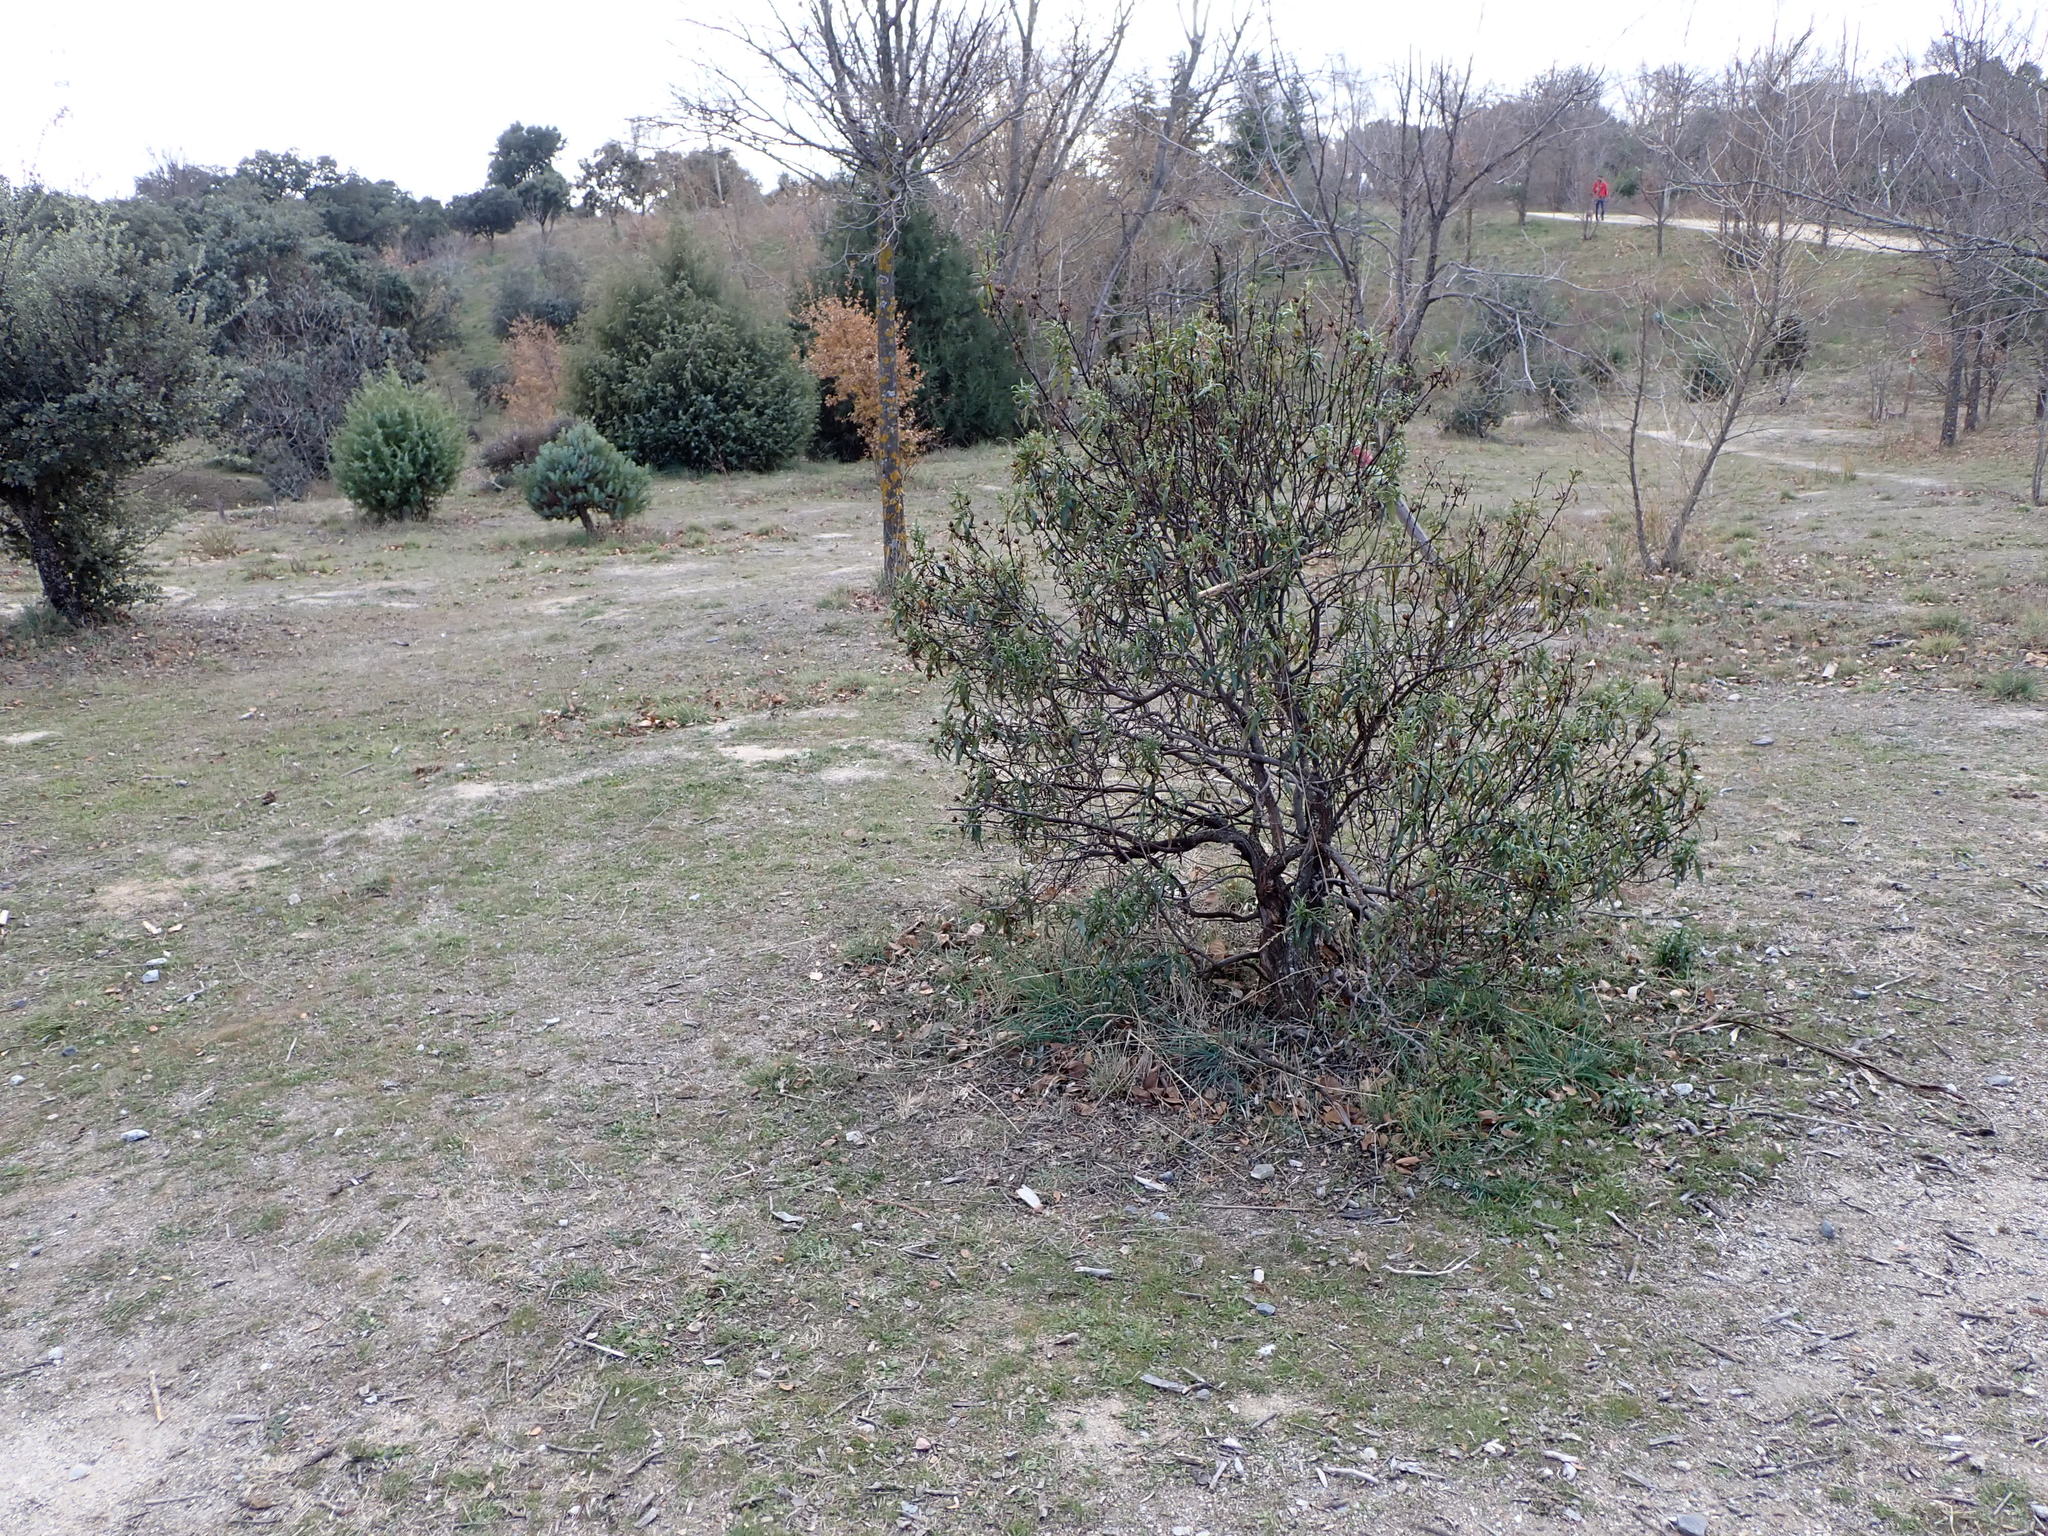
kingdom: Plantae
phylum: Tracheophyta
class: Magnoliopsida
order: Malvales
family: Cistaceae
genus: Cistus
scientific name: Cistus ladanifer
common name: Common gum cistus
